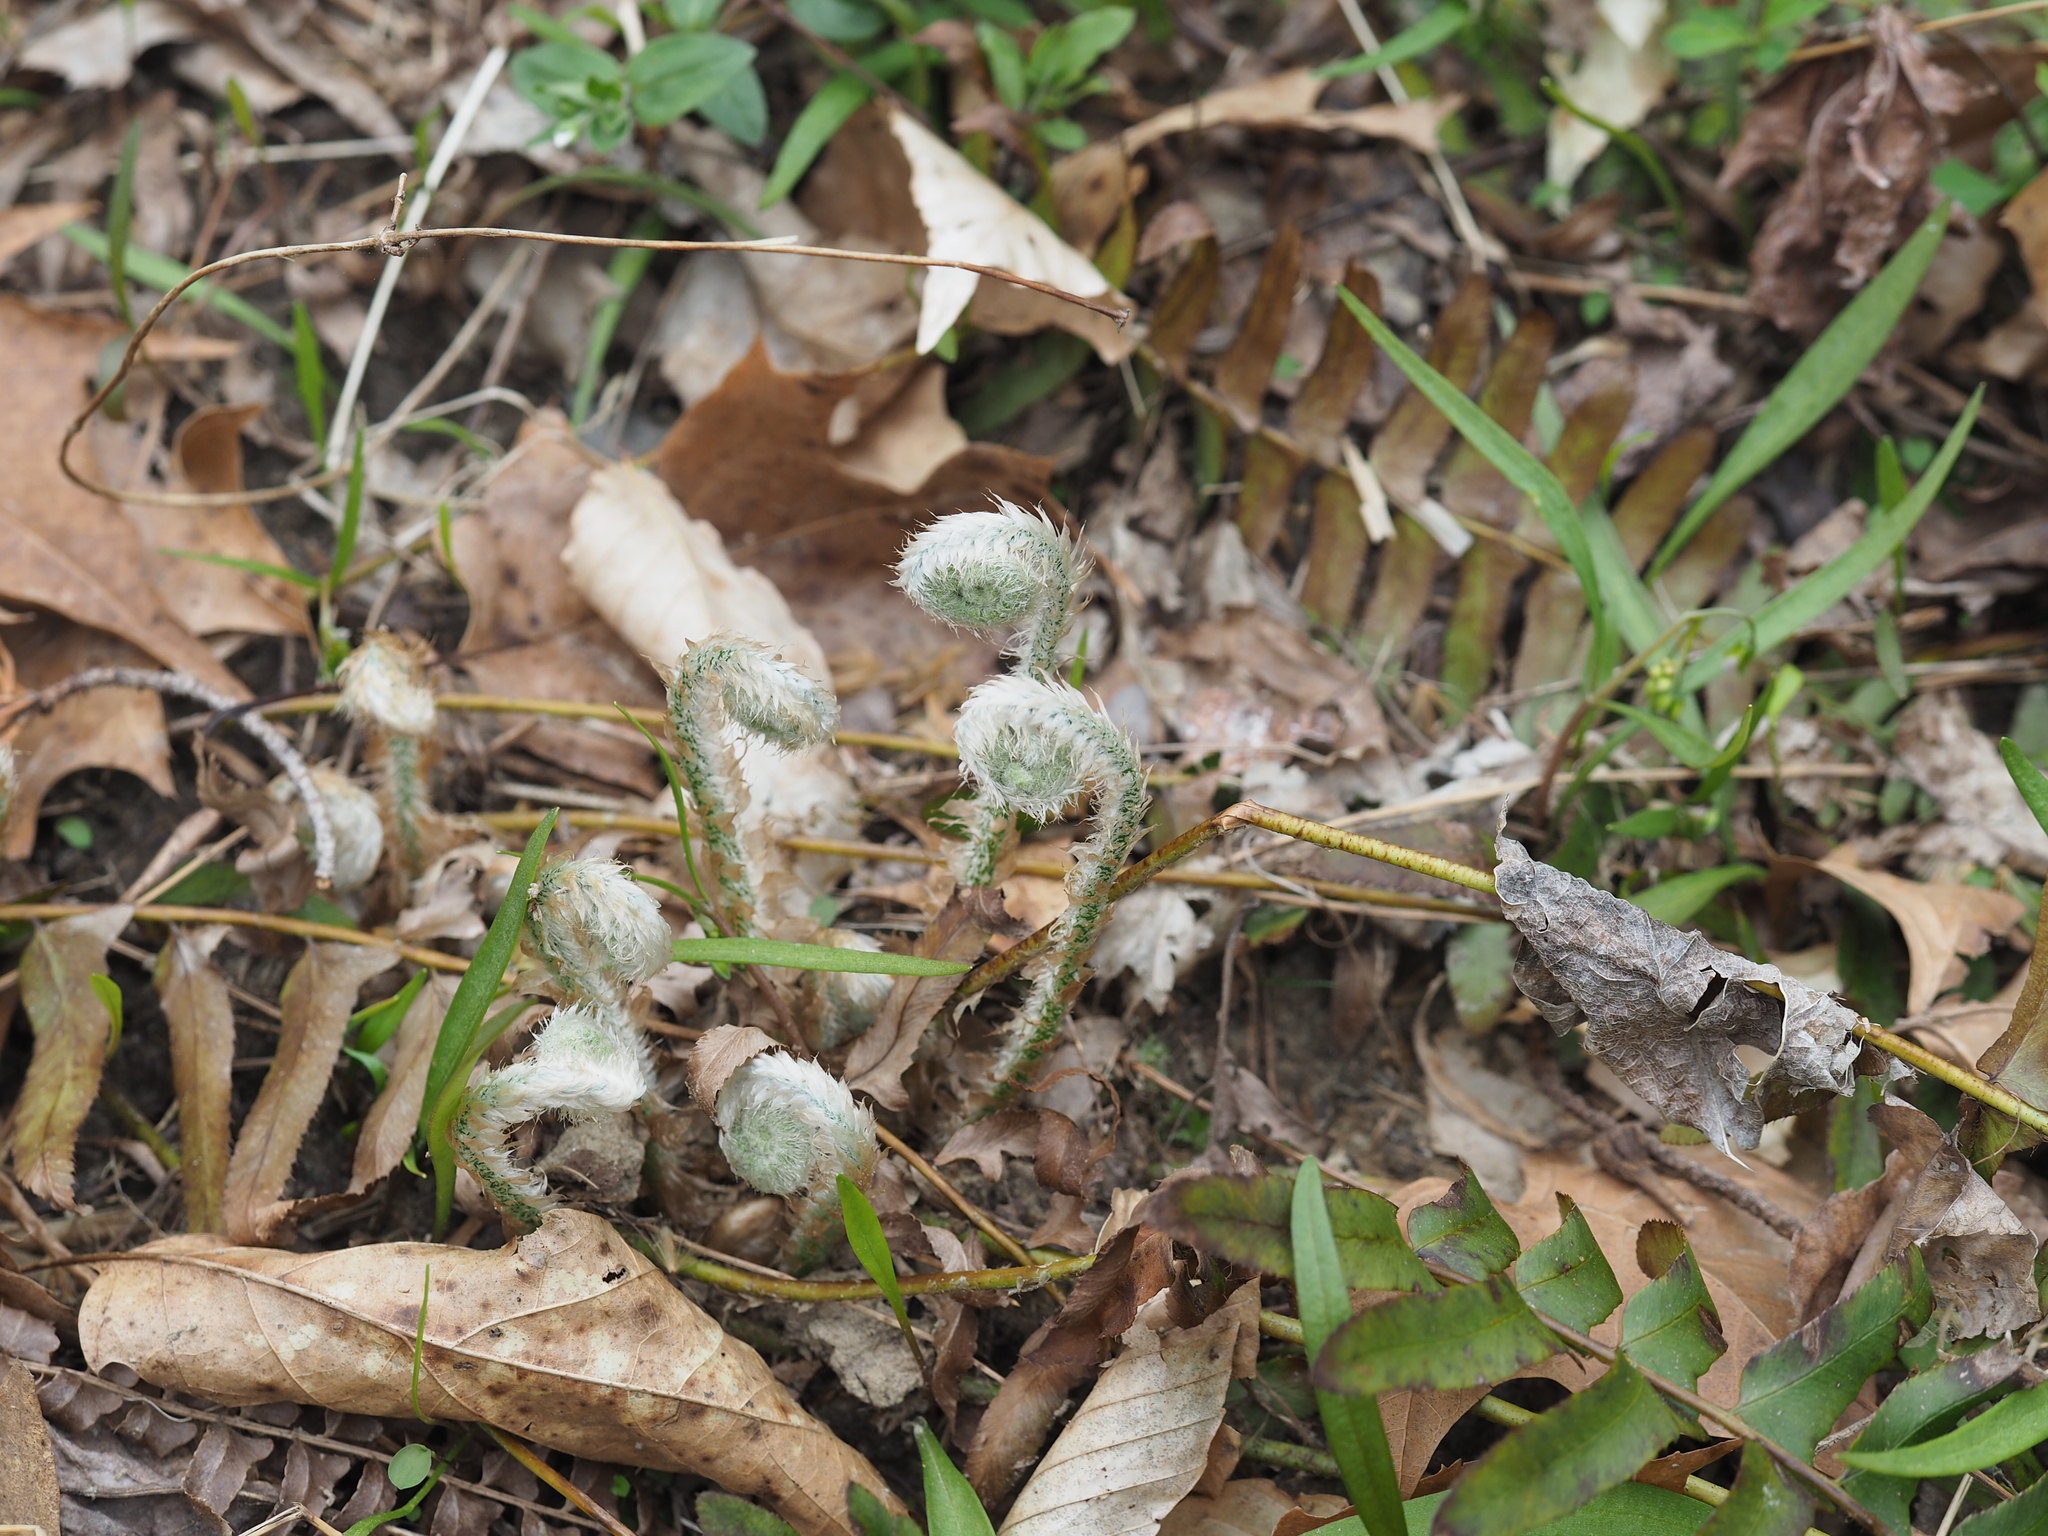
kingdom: Plantae
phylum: Tracheophyta
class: Polypodiopsida
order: Polypodiales
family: Dryopteridaceae
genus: Polystichum
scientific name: Polystichum acrostichoides
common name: Christmas fern
